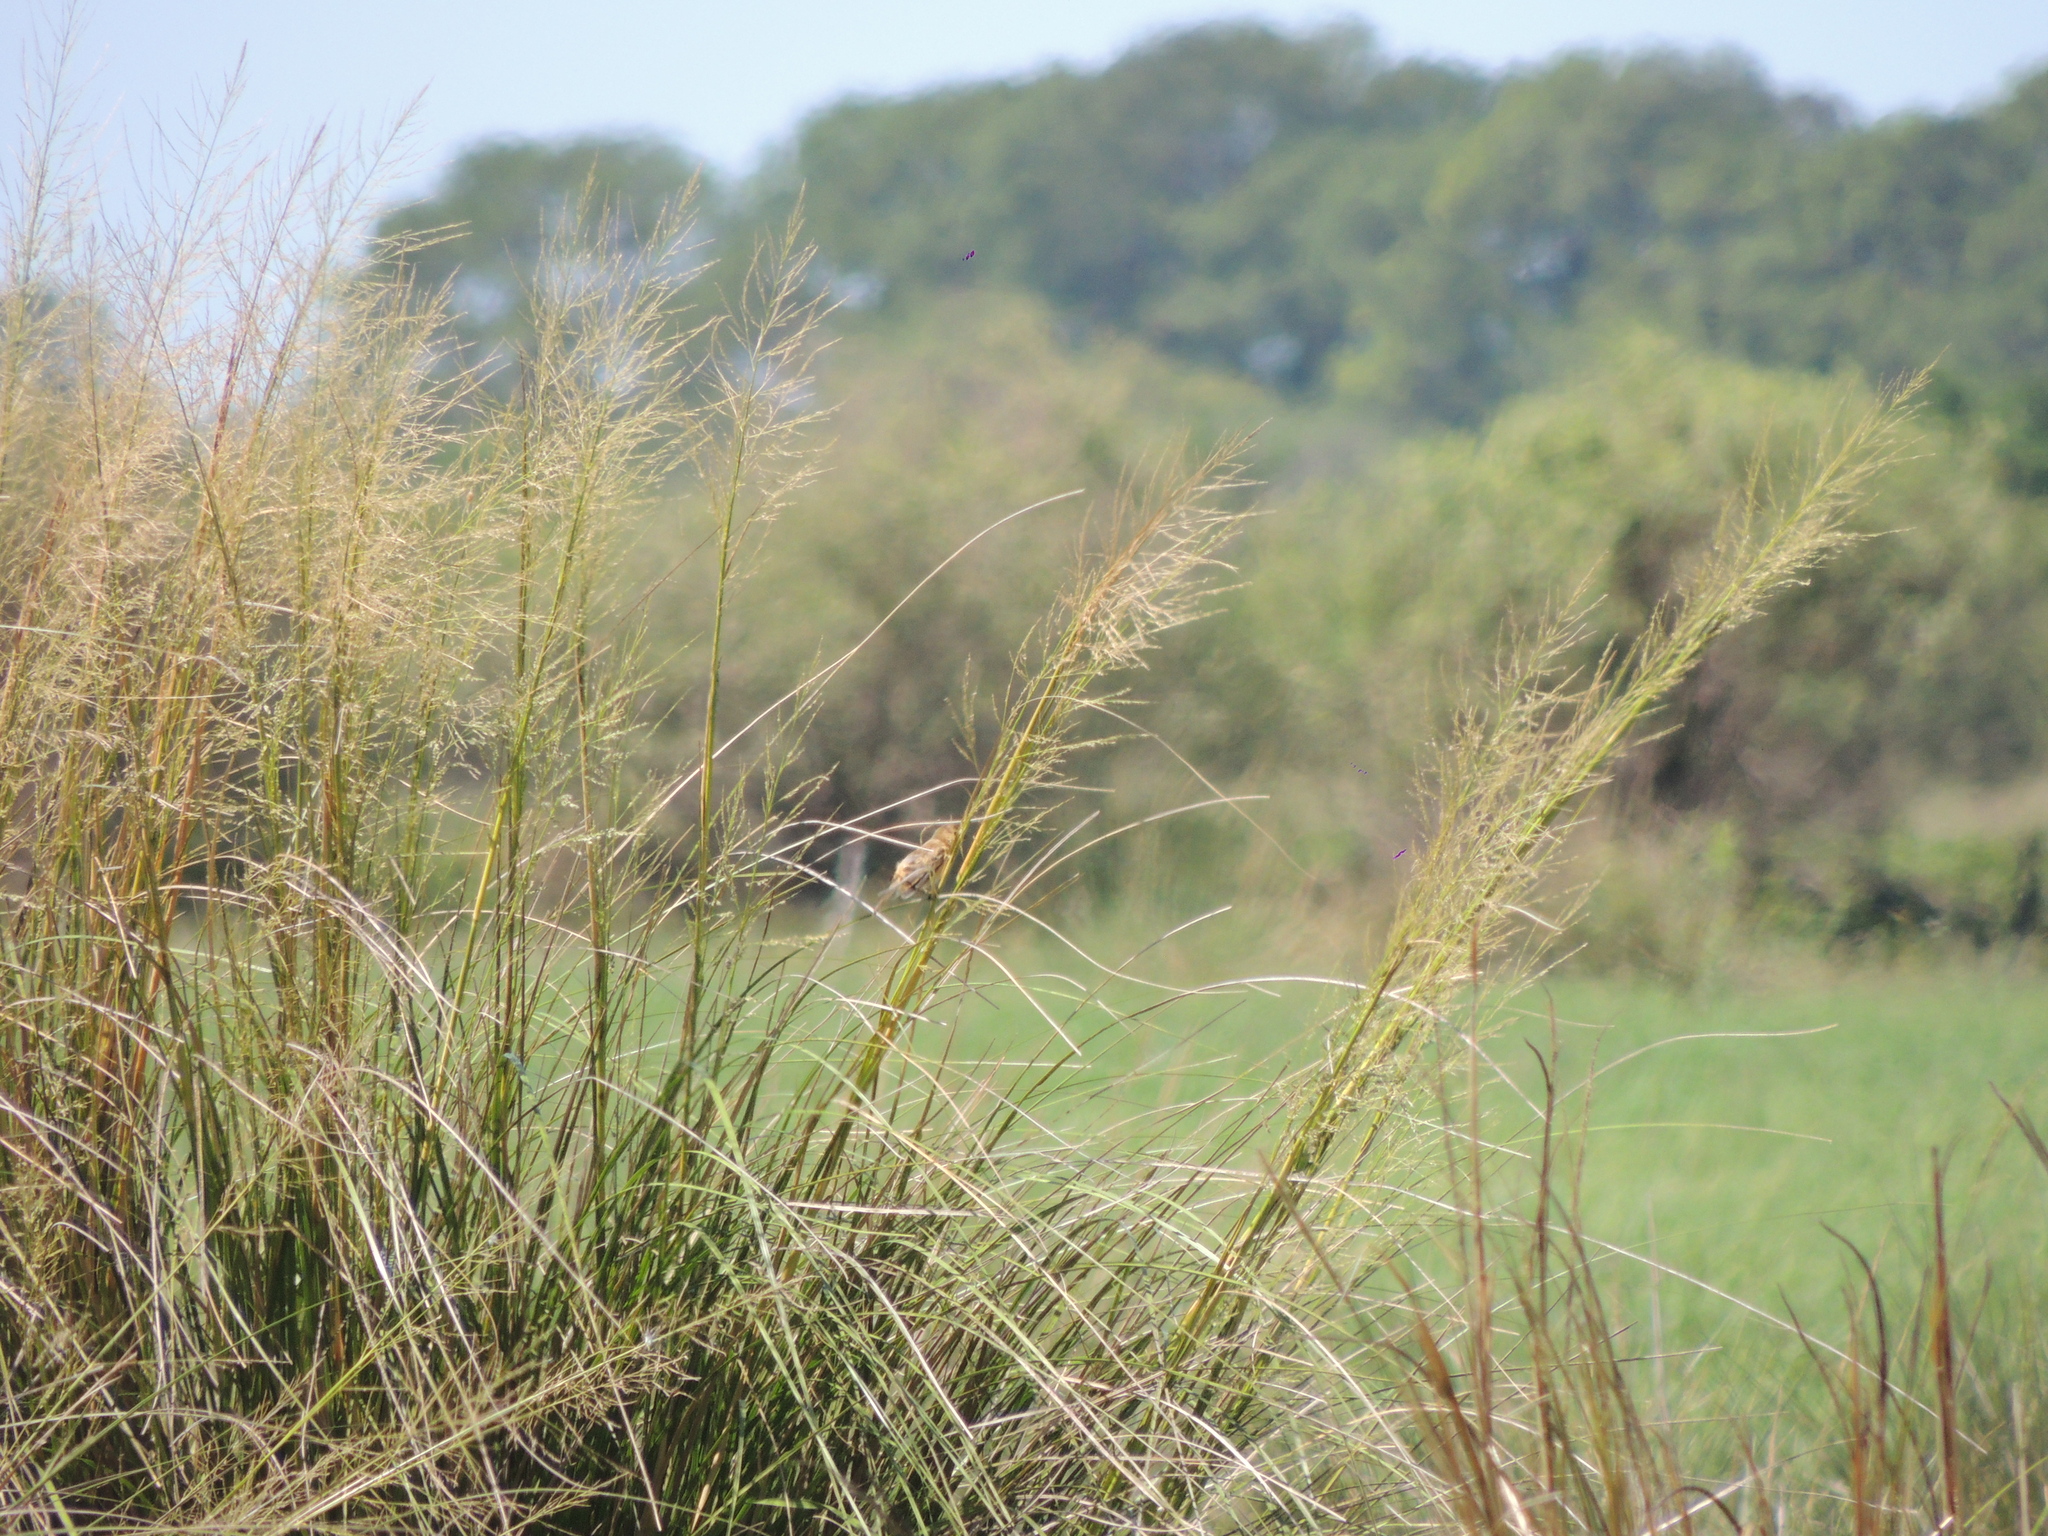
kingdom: Animalia
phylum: Chordata
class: Aves
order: Passeriformes
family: Thraupidae
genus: Sporophila
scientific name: Sporophila ruficollis
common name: Dark-throated seedeater
